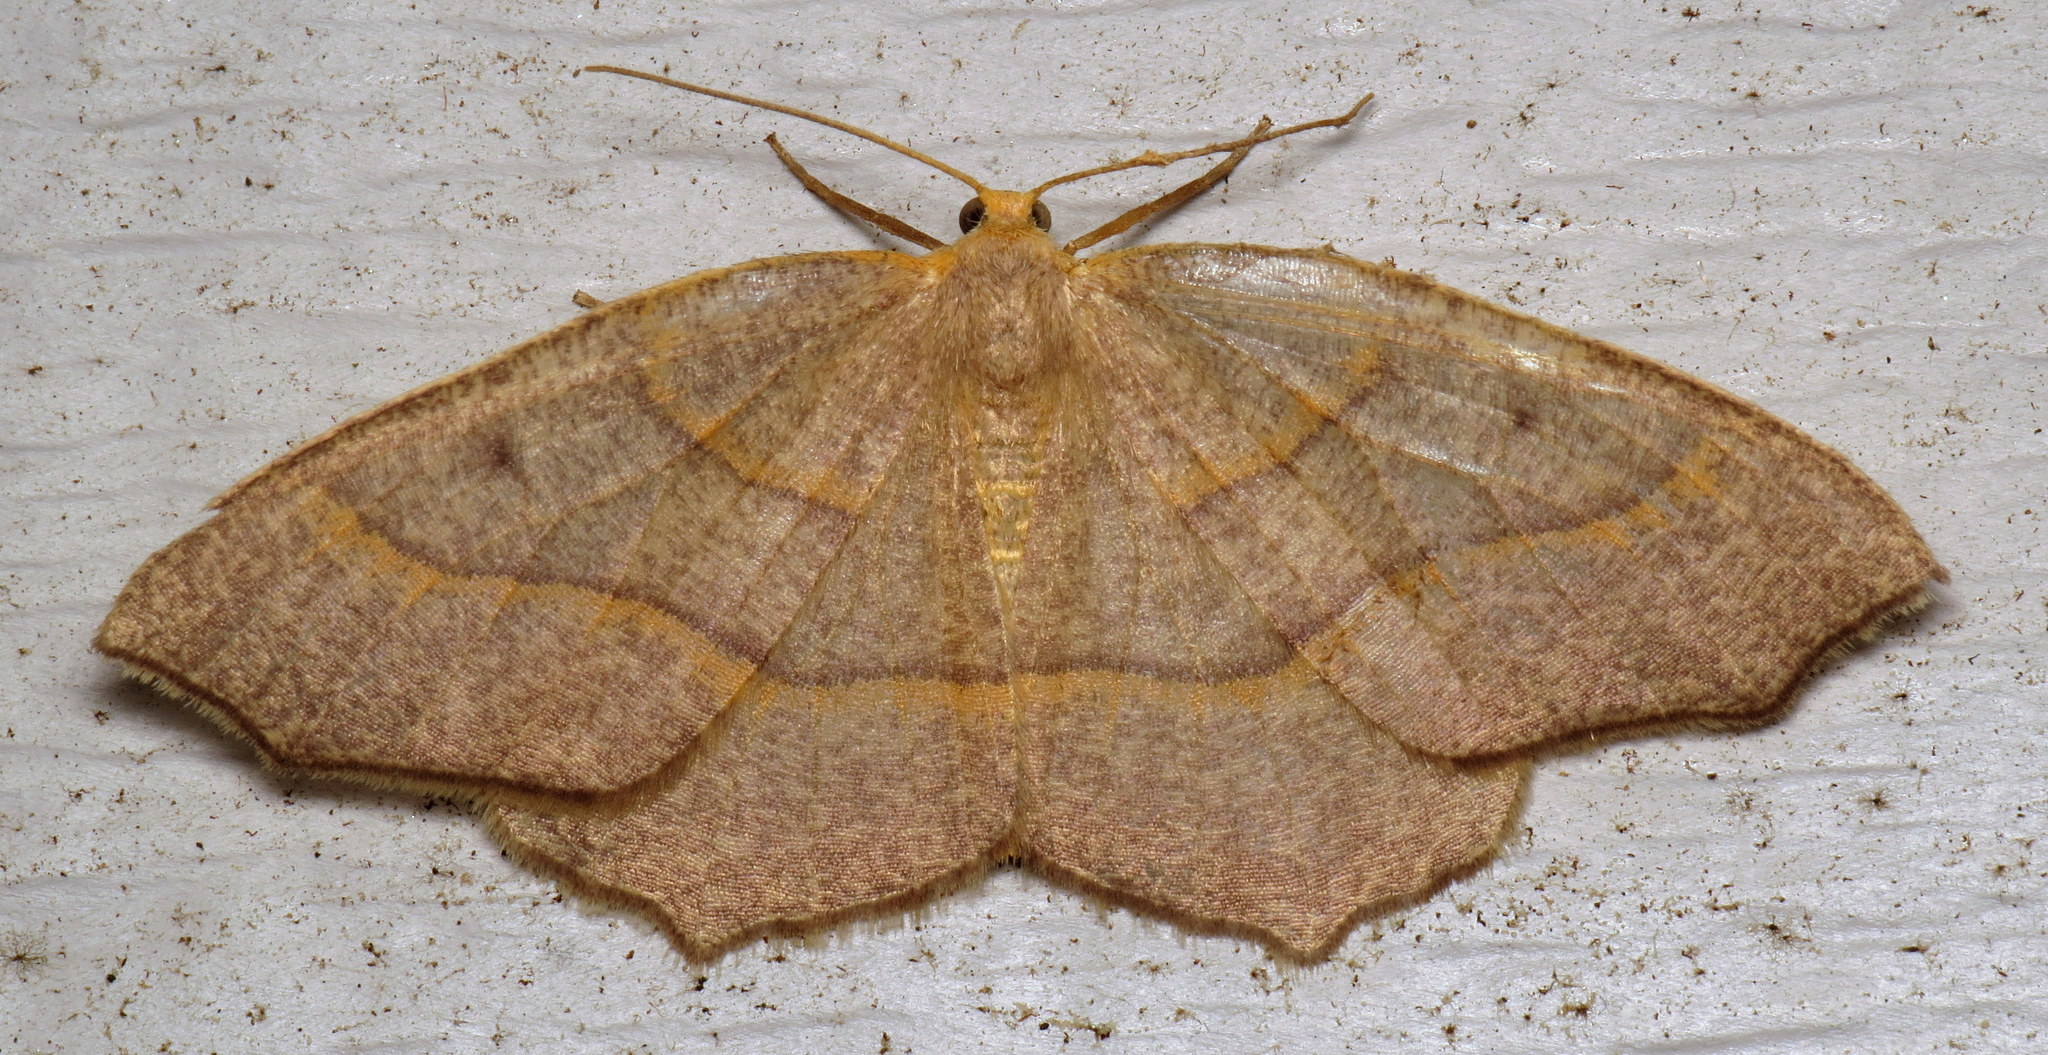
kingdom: Animalia
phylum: Arthropoda
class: Insecta
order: Lepidoptera
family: Geometridae
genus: Lambdina
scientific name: Lambdina fiscellaria
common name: Hemlock looper
